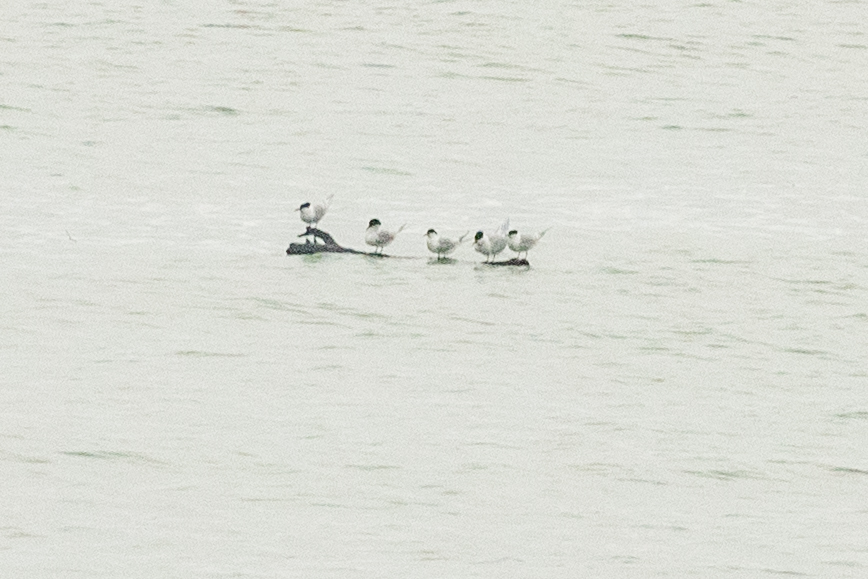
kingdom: Animalia
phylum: Chordata
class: Aves
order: Charadriiformes
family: Laridae
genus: Thalasseus
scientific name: Thalasseus sandvicensis
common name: Sandwich tern
